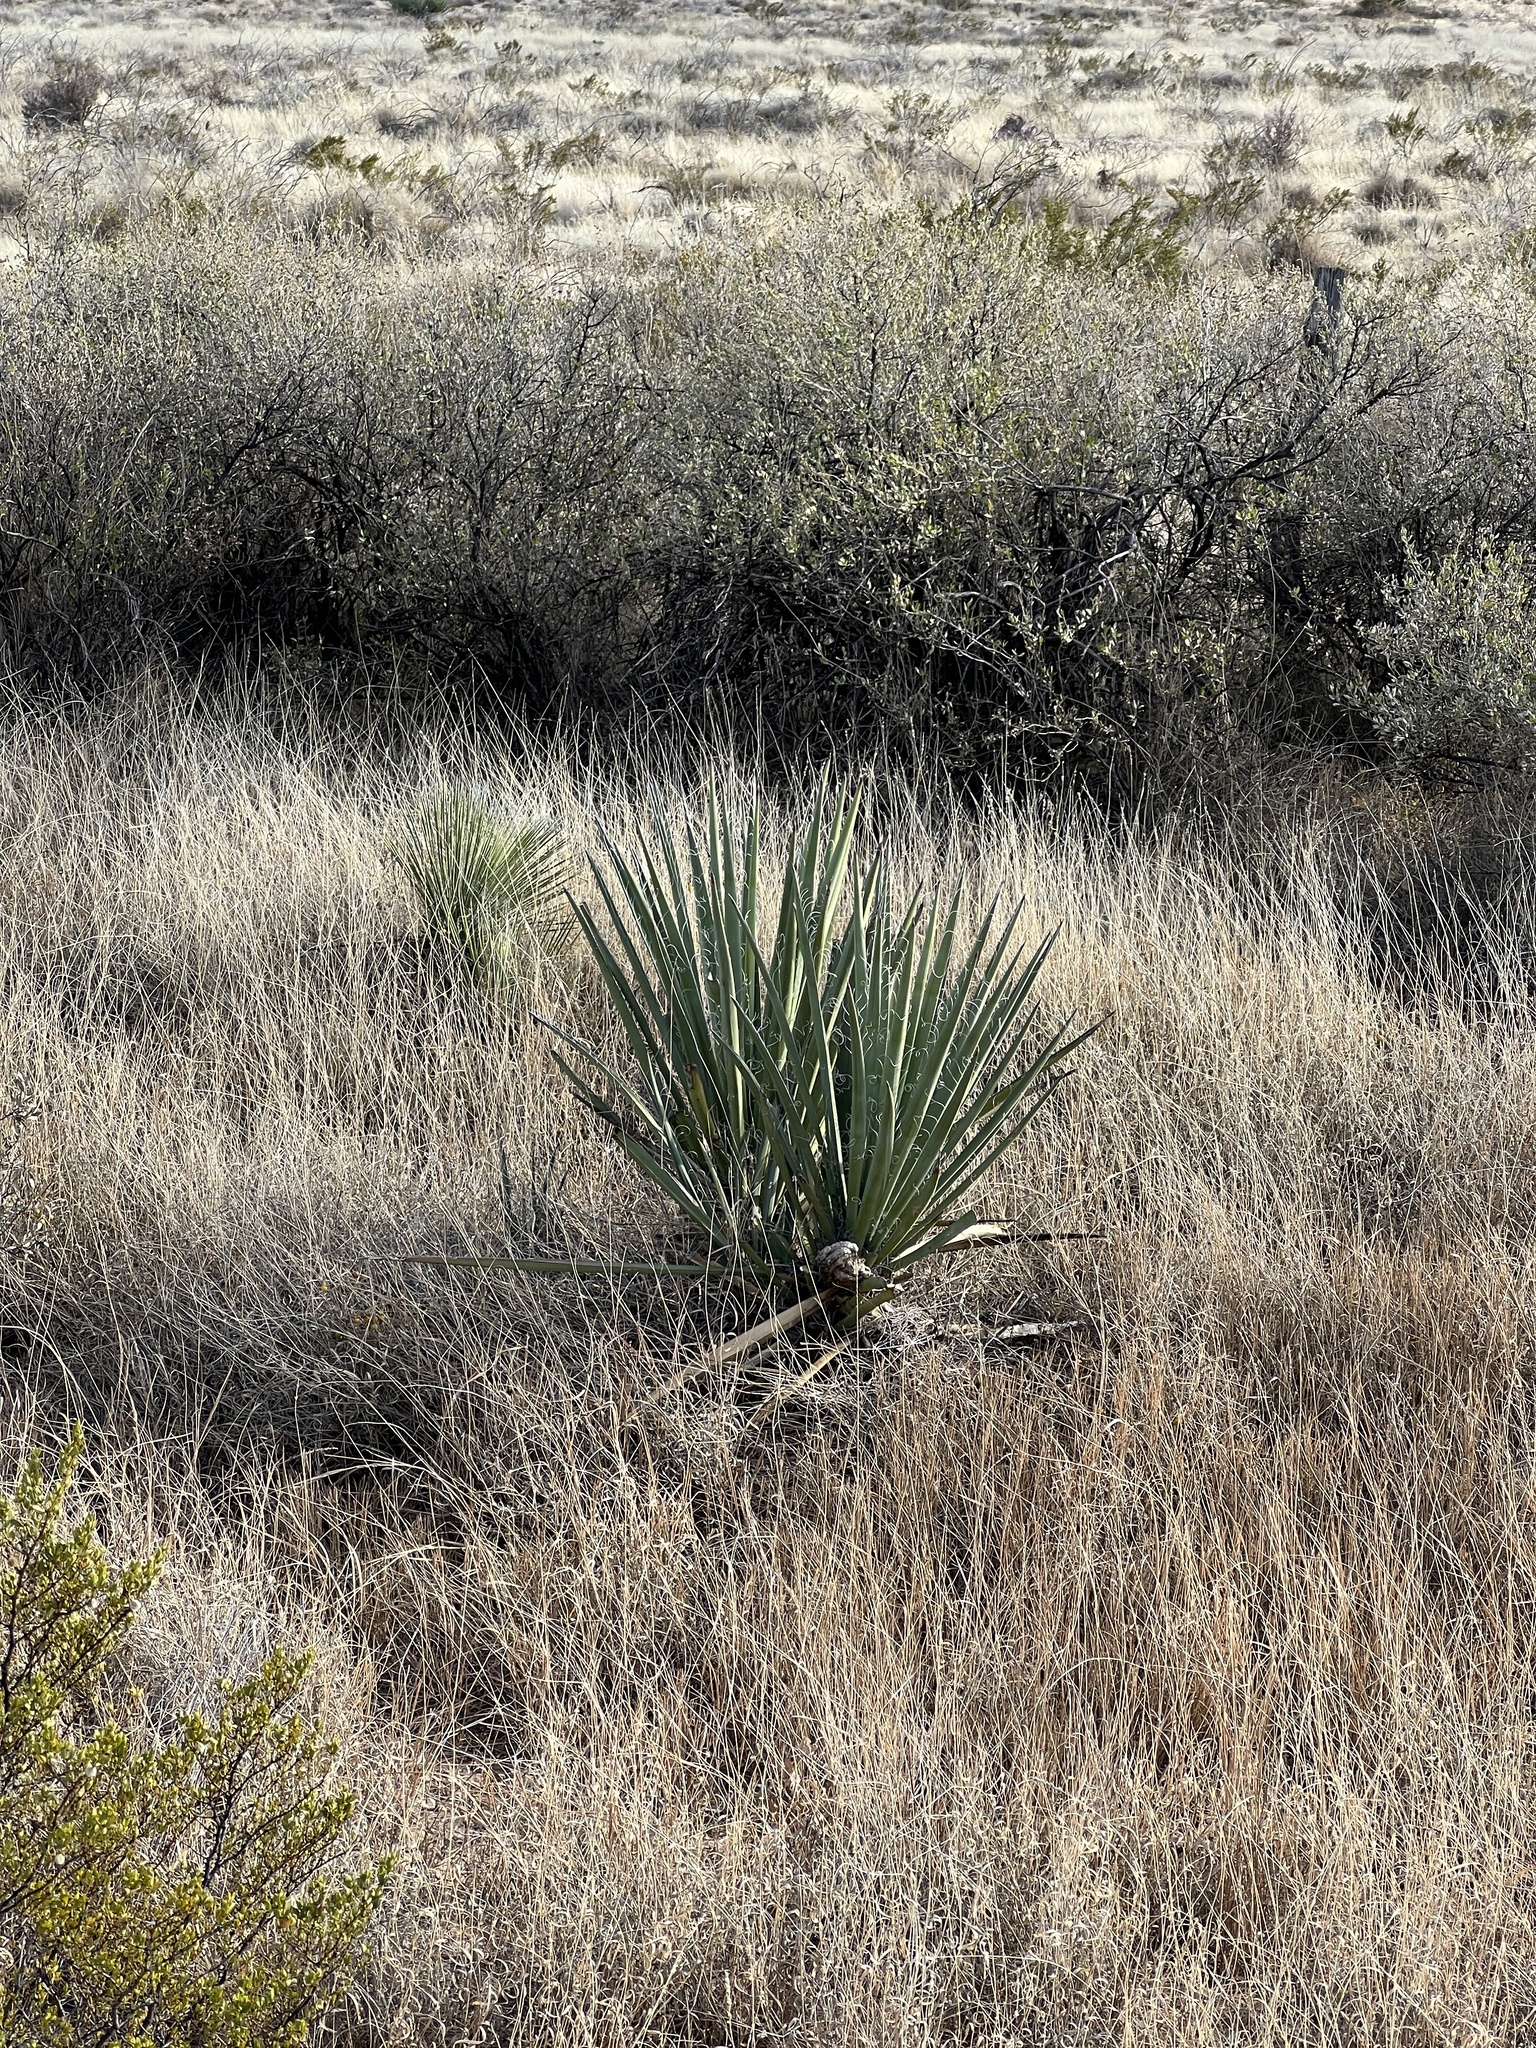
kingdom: Plantae
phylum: Tracheophyta
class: Liliopsida
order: Asparagales
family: Asparagaceae
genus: Yucca
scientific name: Yucca baccata
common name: Banana yucca
